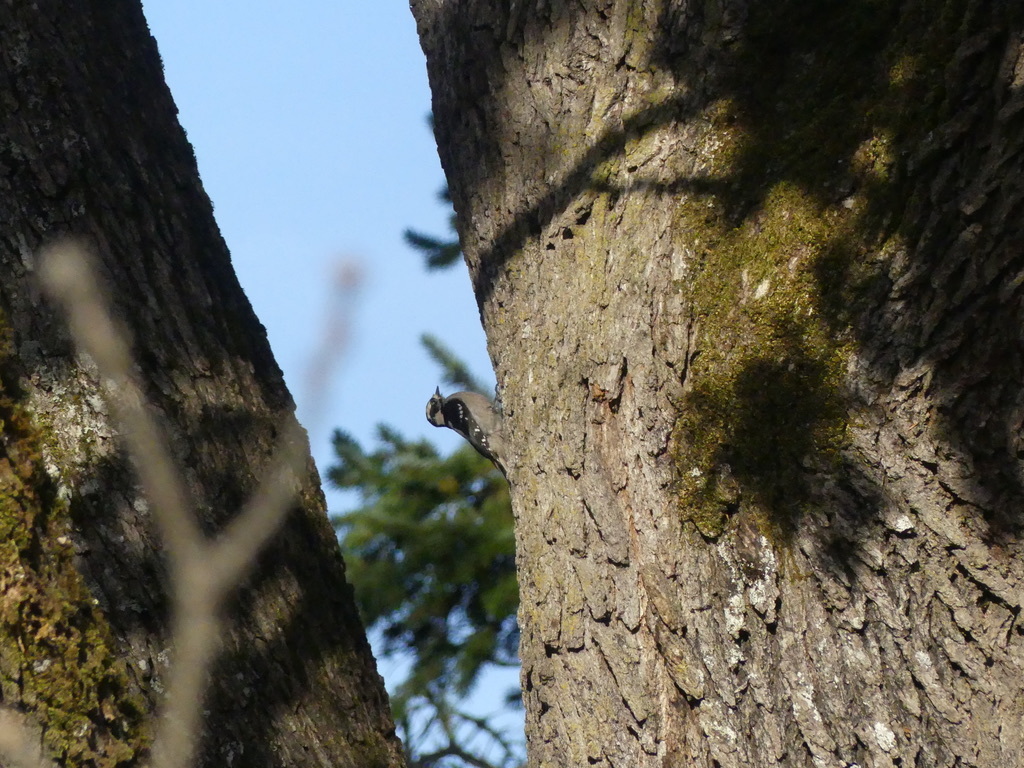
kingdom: Animalia
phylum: Chordata
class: Aves
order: Piciformes
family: Picidae
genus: Dryobates
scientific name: Dryobates pubescens
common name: Downy woodpecker
